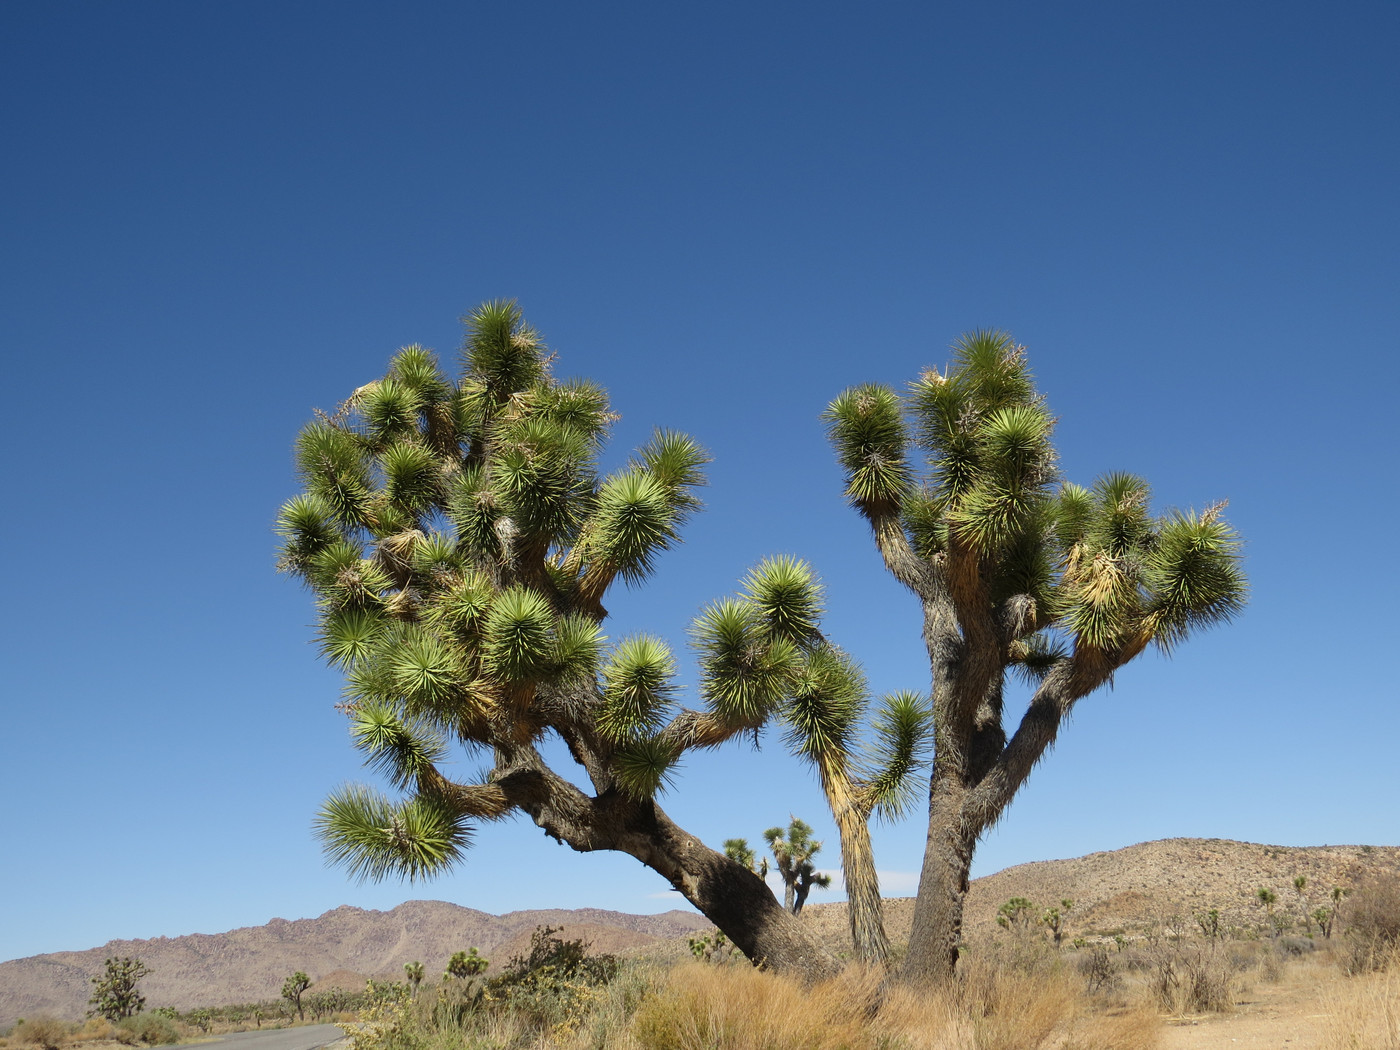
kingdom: Plantae
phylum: Tracheophyta
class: Liliopsida
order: Asparagales
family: Asparagaceae
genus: Yucca
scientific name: Yucca brevifolia
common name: Joshua tree
